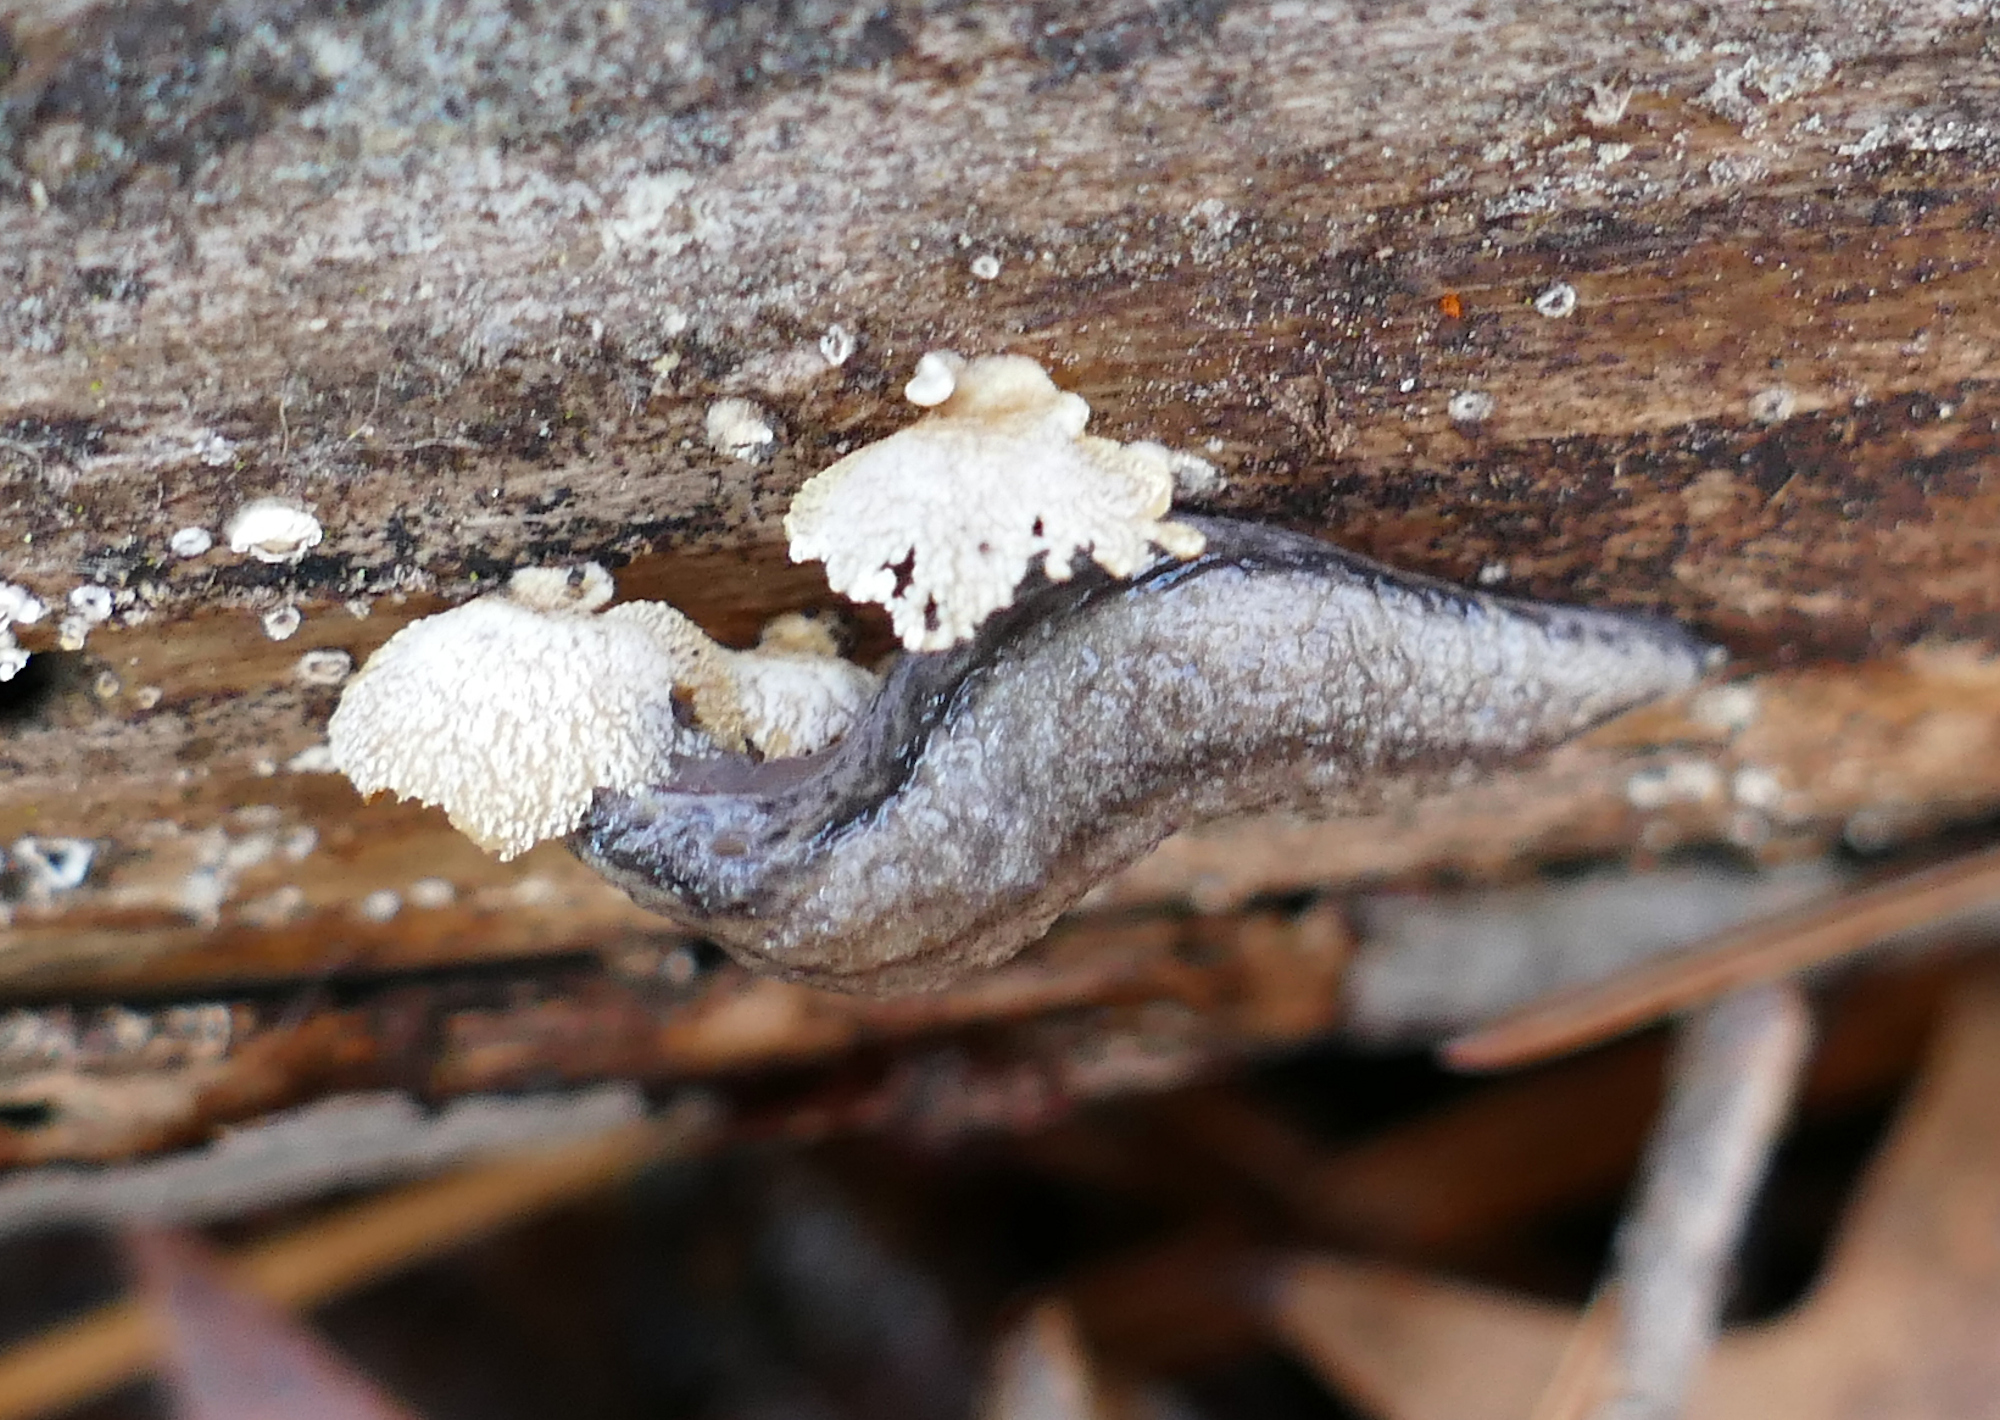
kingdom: Fungi
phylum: Basidiomycota
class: Agaricomycetes
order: Agaricales
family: Schizophyllaceae
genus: Schizophyllum
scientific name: Schizophyllum commune
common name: Common porecrust
